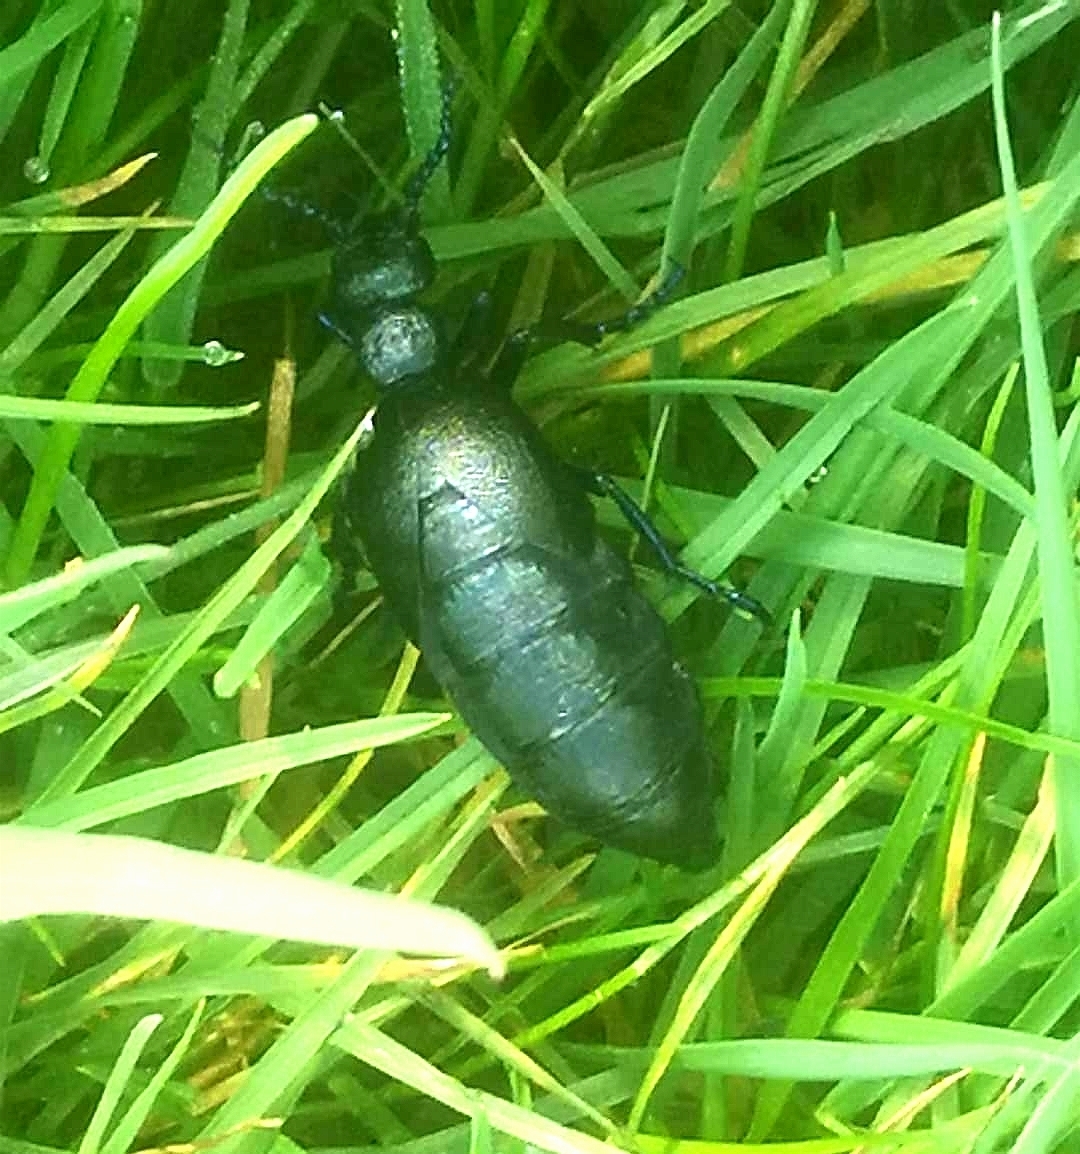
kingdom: Animalia
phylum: Arthropoda
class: Insecta
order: Coleoptera
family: Meloidae
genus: Meloe
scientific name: Meloe proscarabaeus
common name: Black oil-beetle
